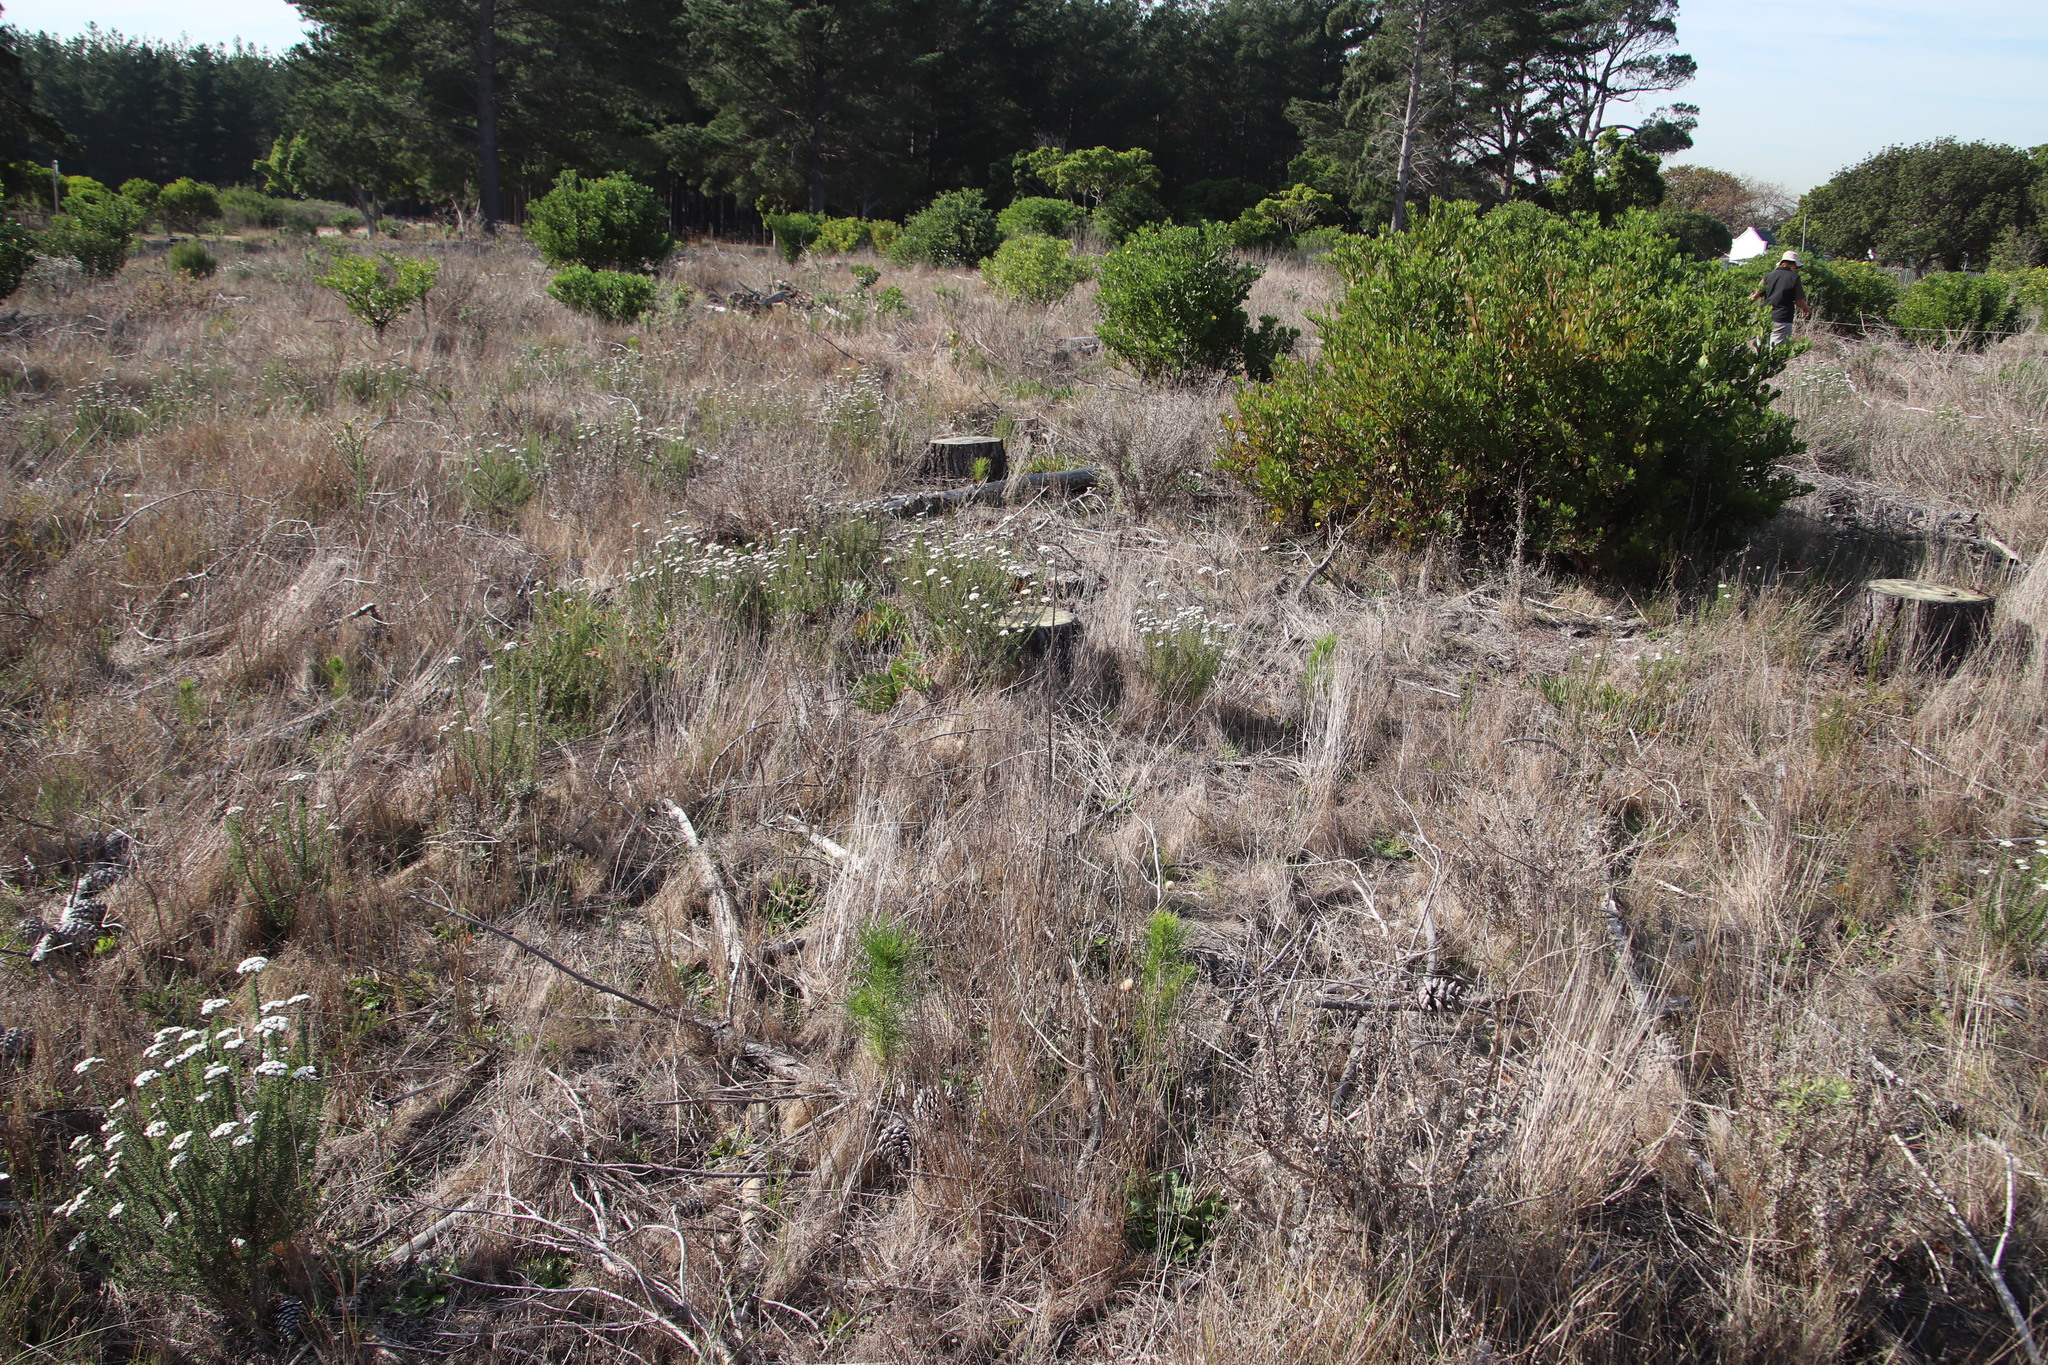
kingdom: Plantae
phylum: Tracheophyta
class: Pinopsida
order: Pinales
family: Pinaceae
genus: Pinus
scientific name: Pinus radiata
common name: Monterey pine
